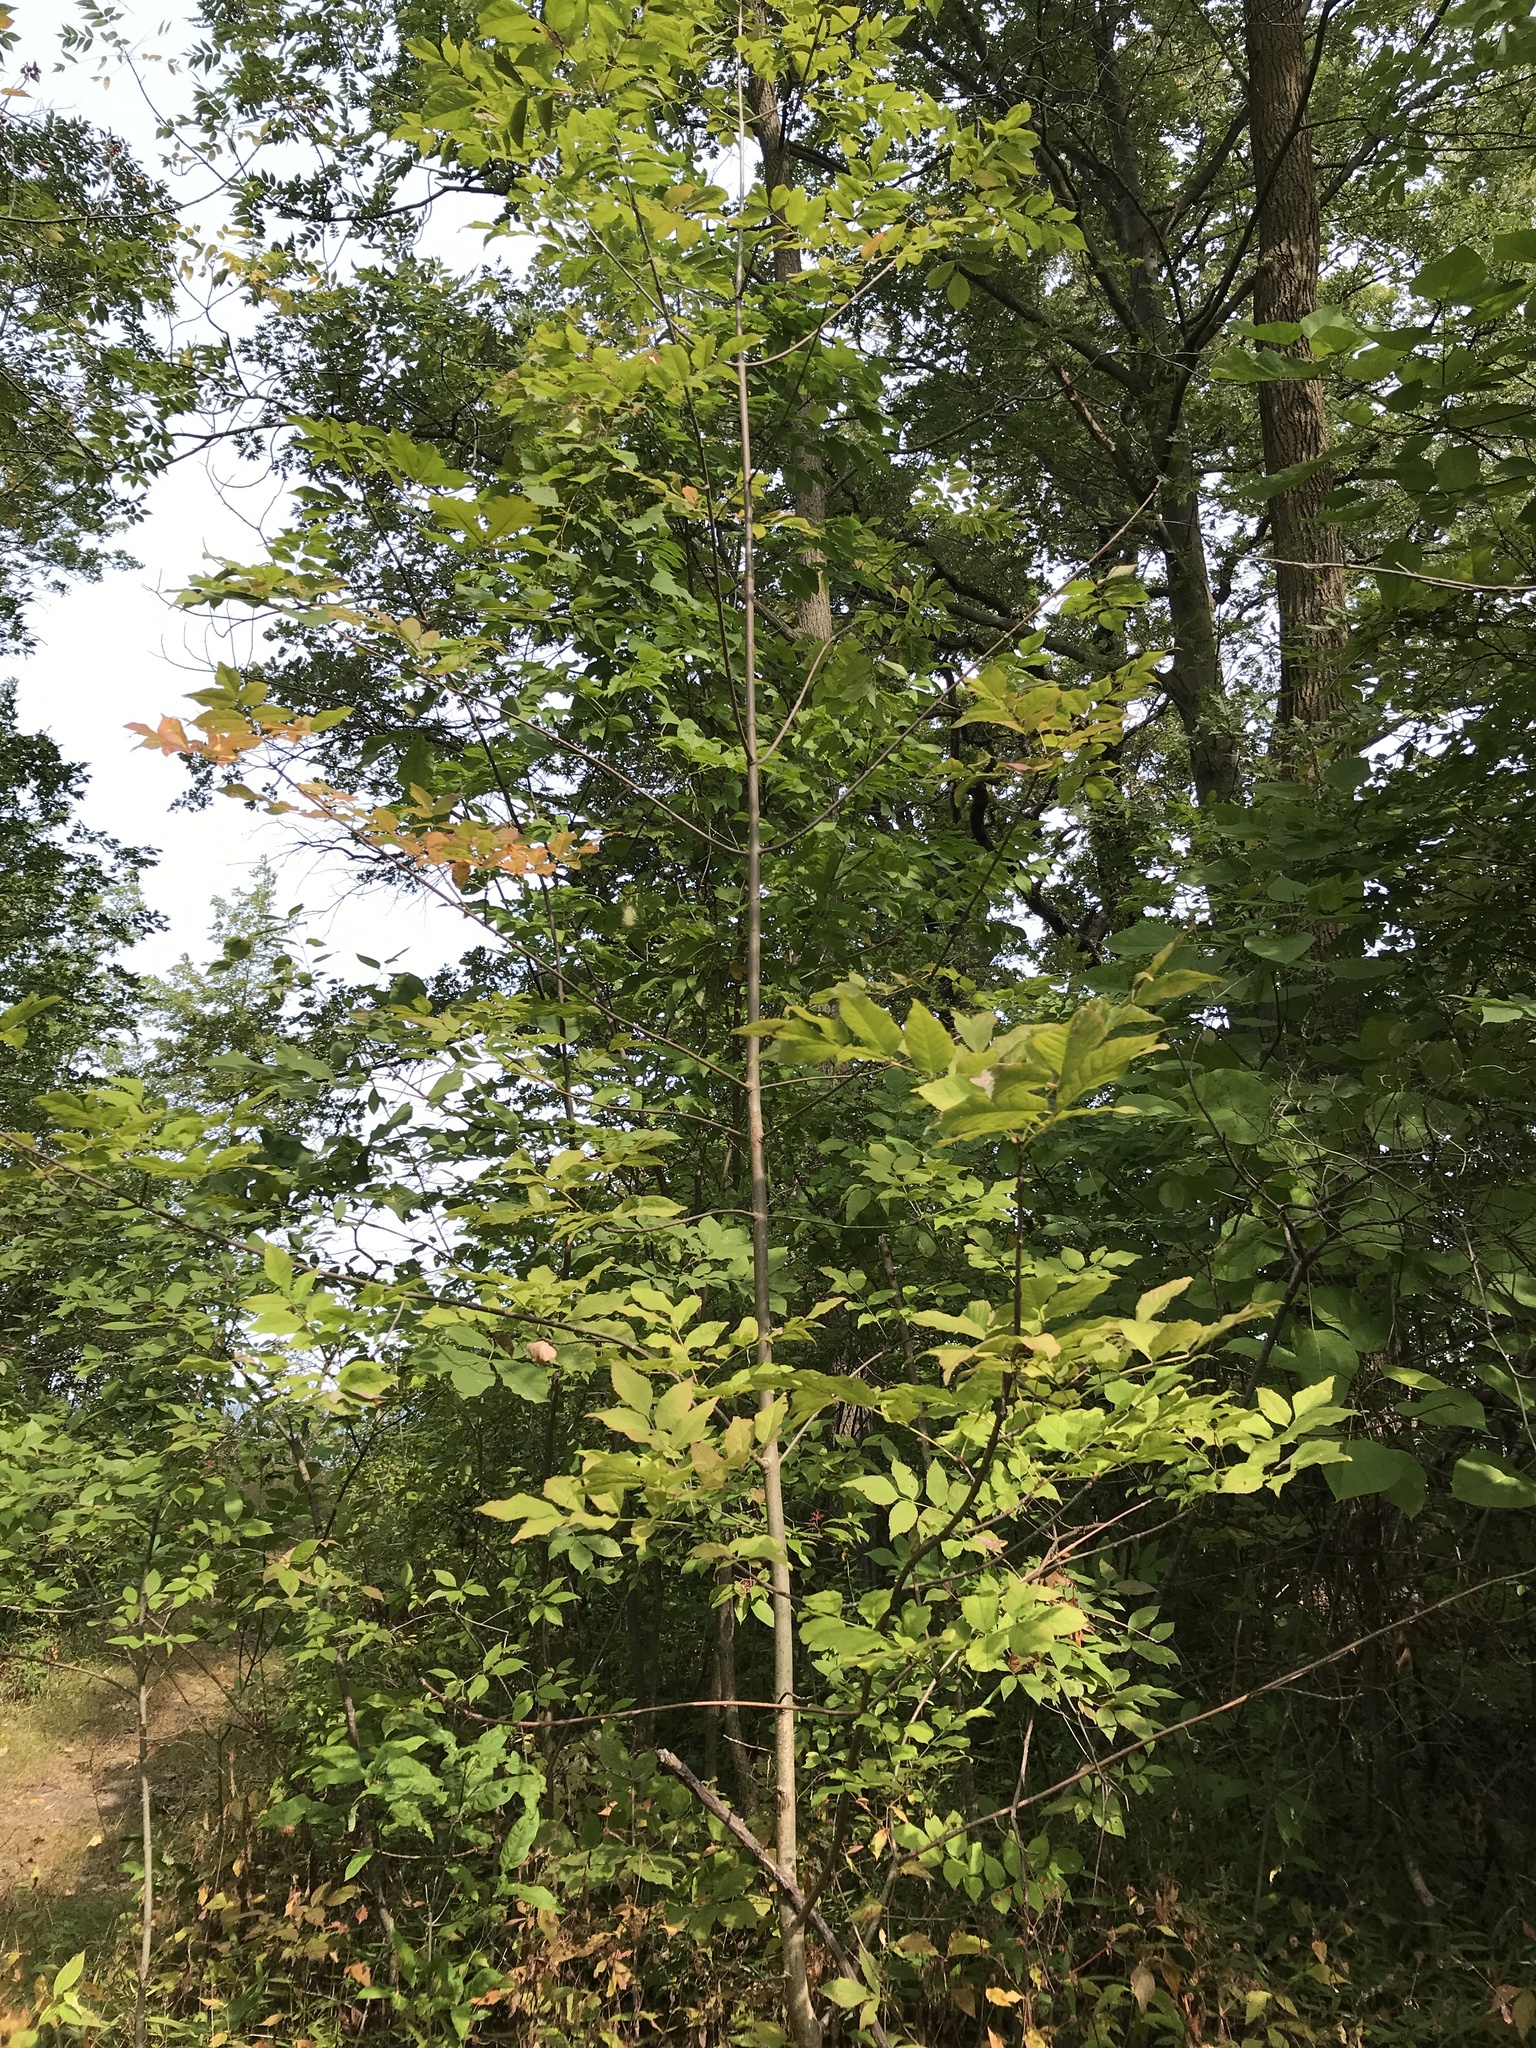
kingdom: Plantae
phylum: Tracheophyta
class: Magnoliopsida
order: Lamiales
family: Oleaceae
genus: Fraxinus
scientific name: Fraxinus nigra
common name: Black ash
